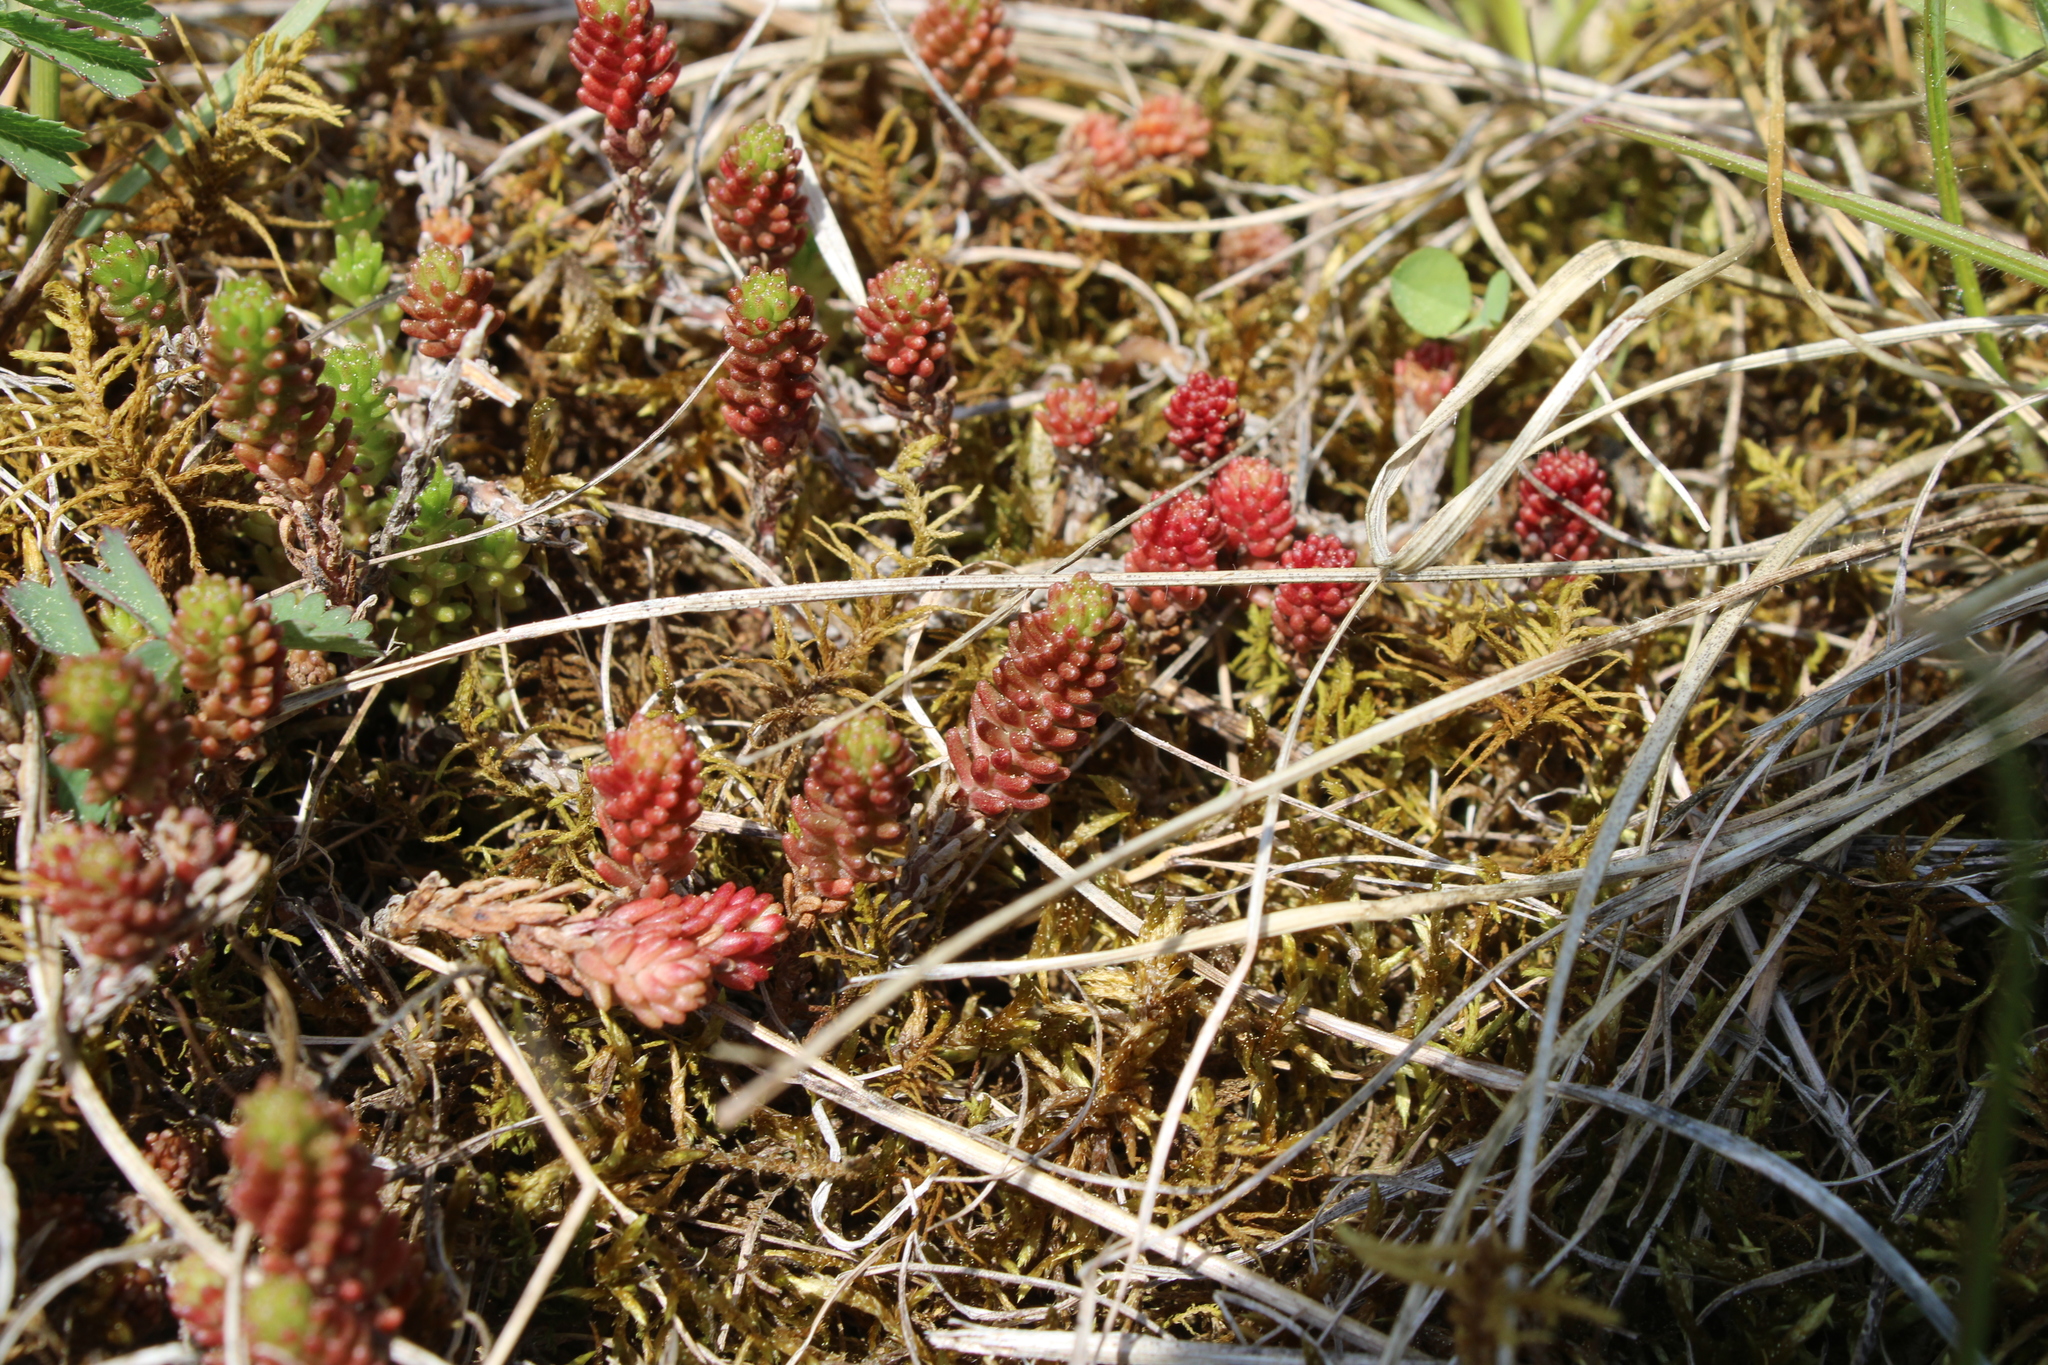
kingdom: Plantae
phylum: Tracheophyta
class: Magnoliopsida
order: Saxifragales
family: Crassulaceae
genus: Sedum
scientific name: Sedum sexangulare
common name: Tasteless stonecrop
